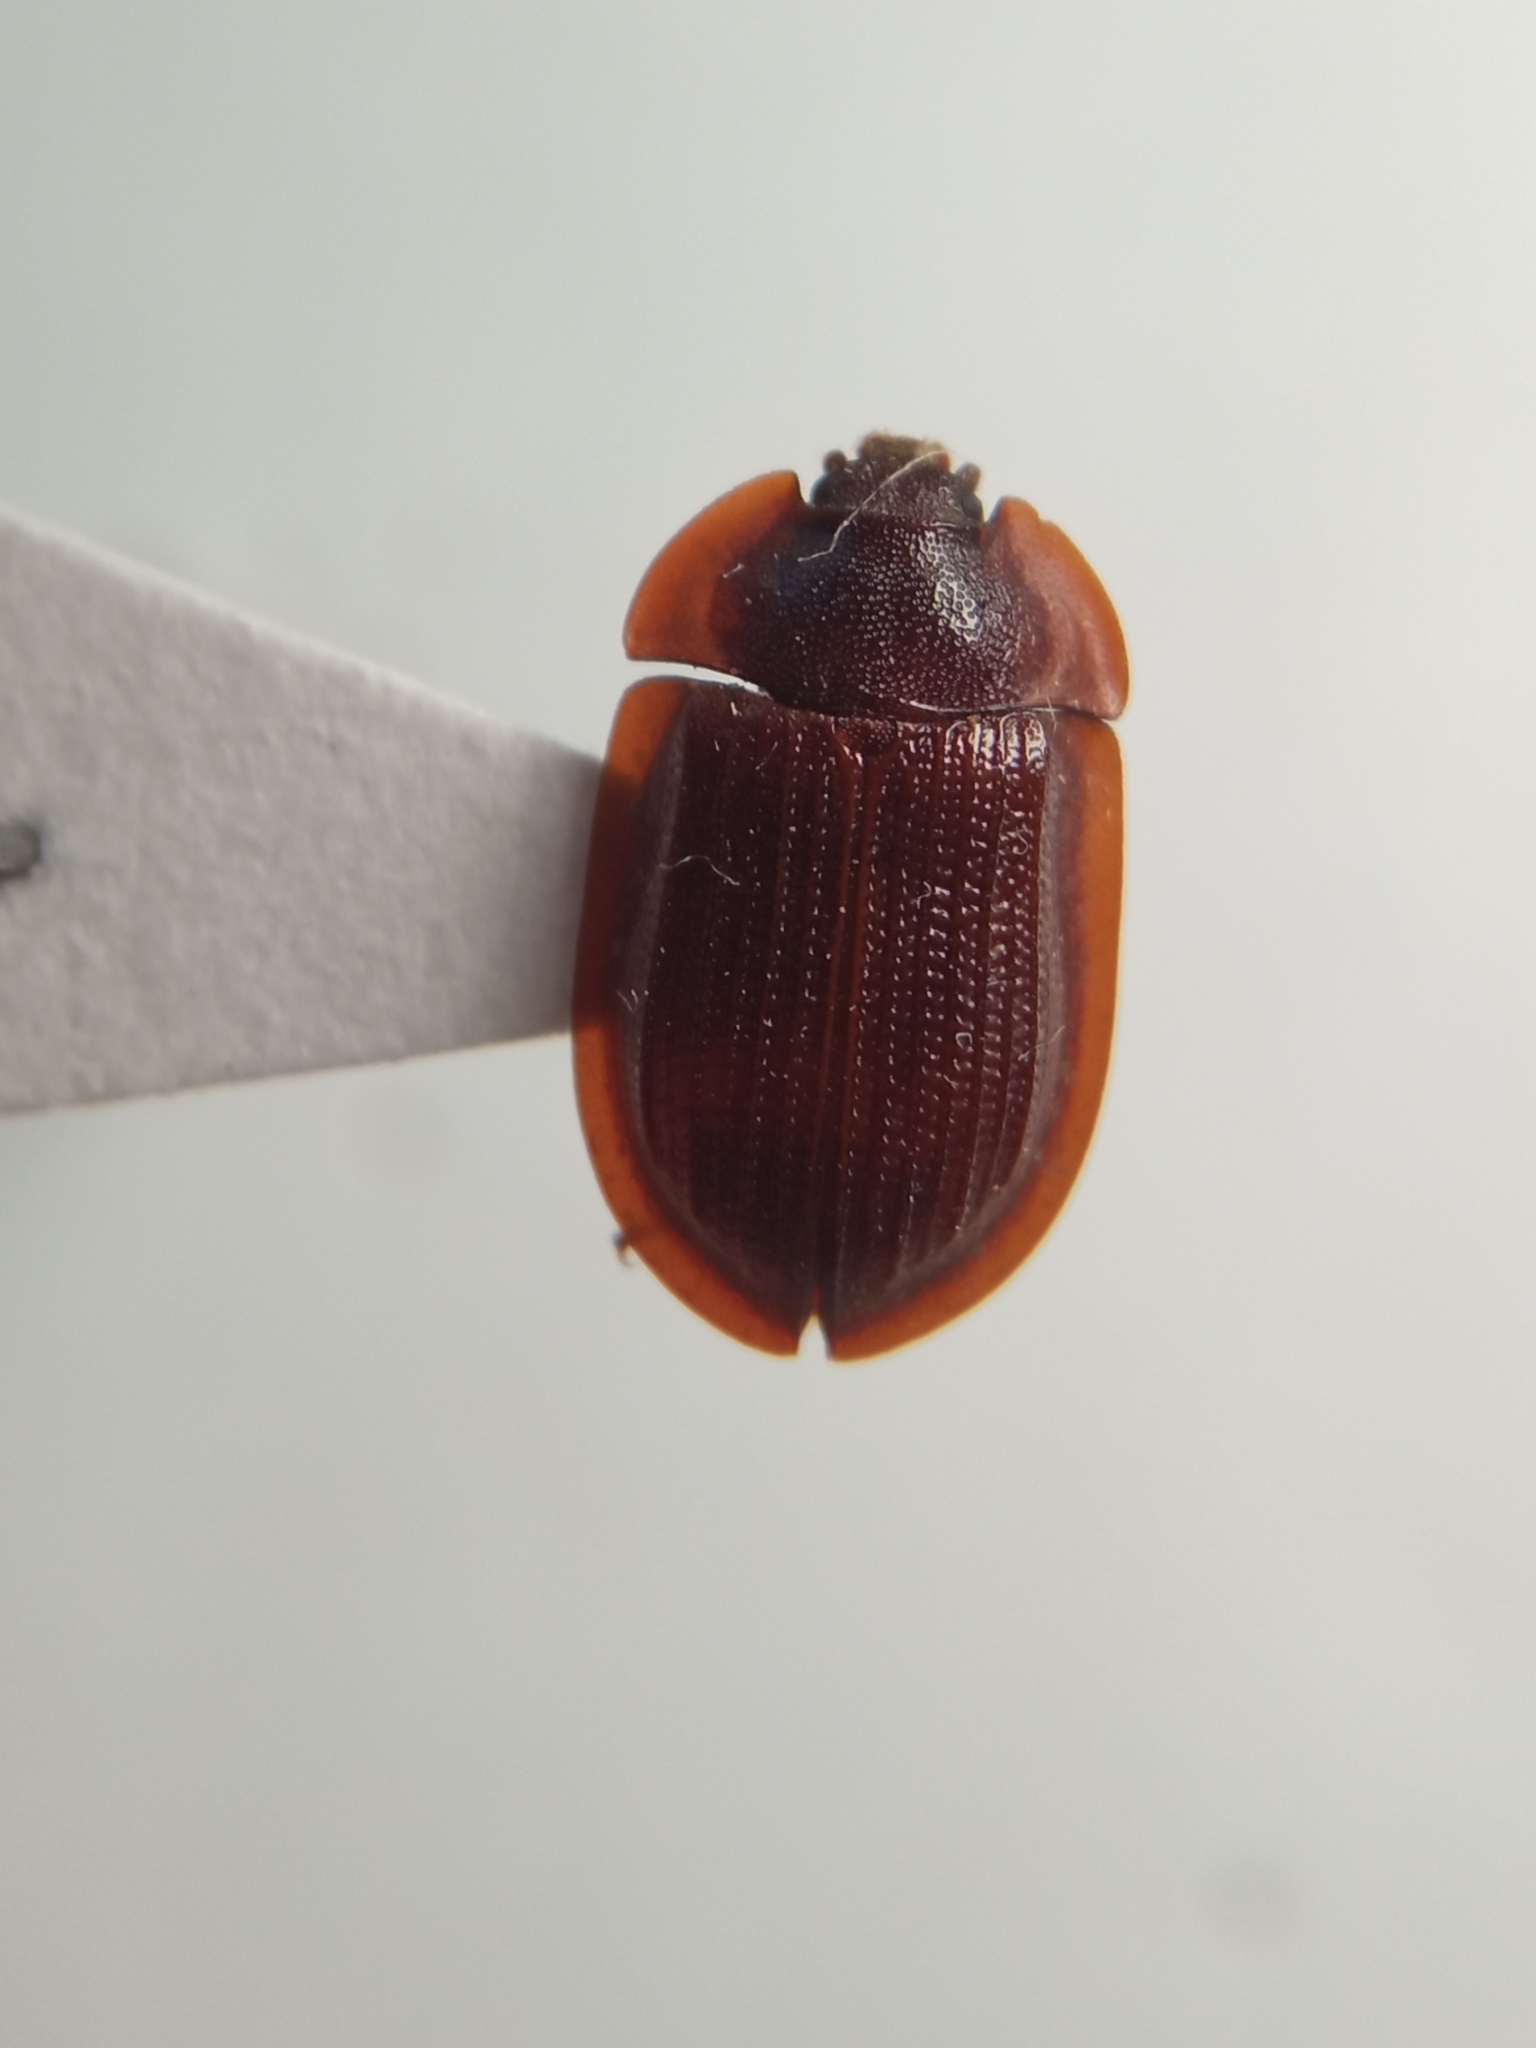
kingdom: Animalia
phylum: Arthropoda
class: Insecta
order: Coleoptera
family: Trogossitidae
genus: Peltis
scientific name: Peltis ferruginea
